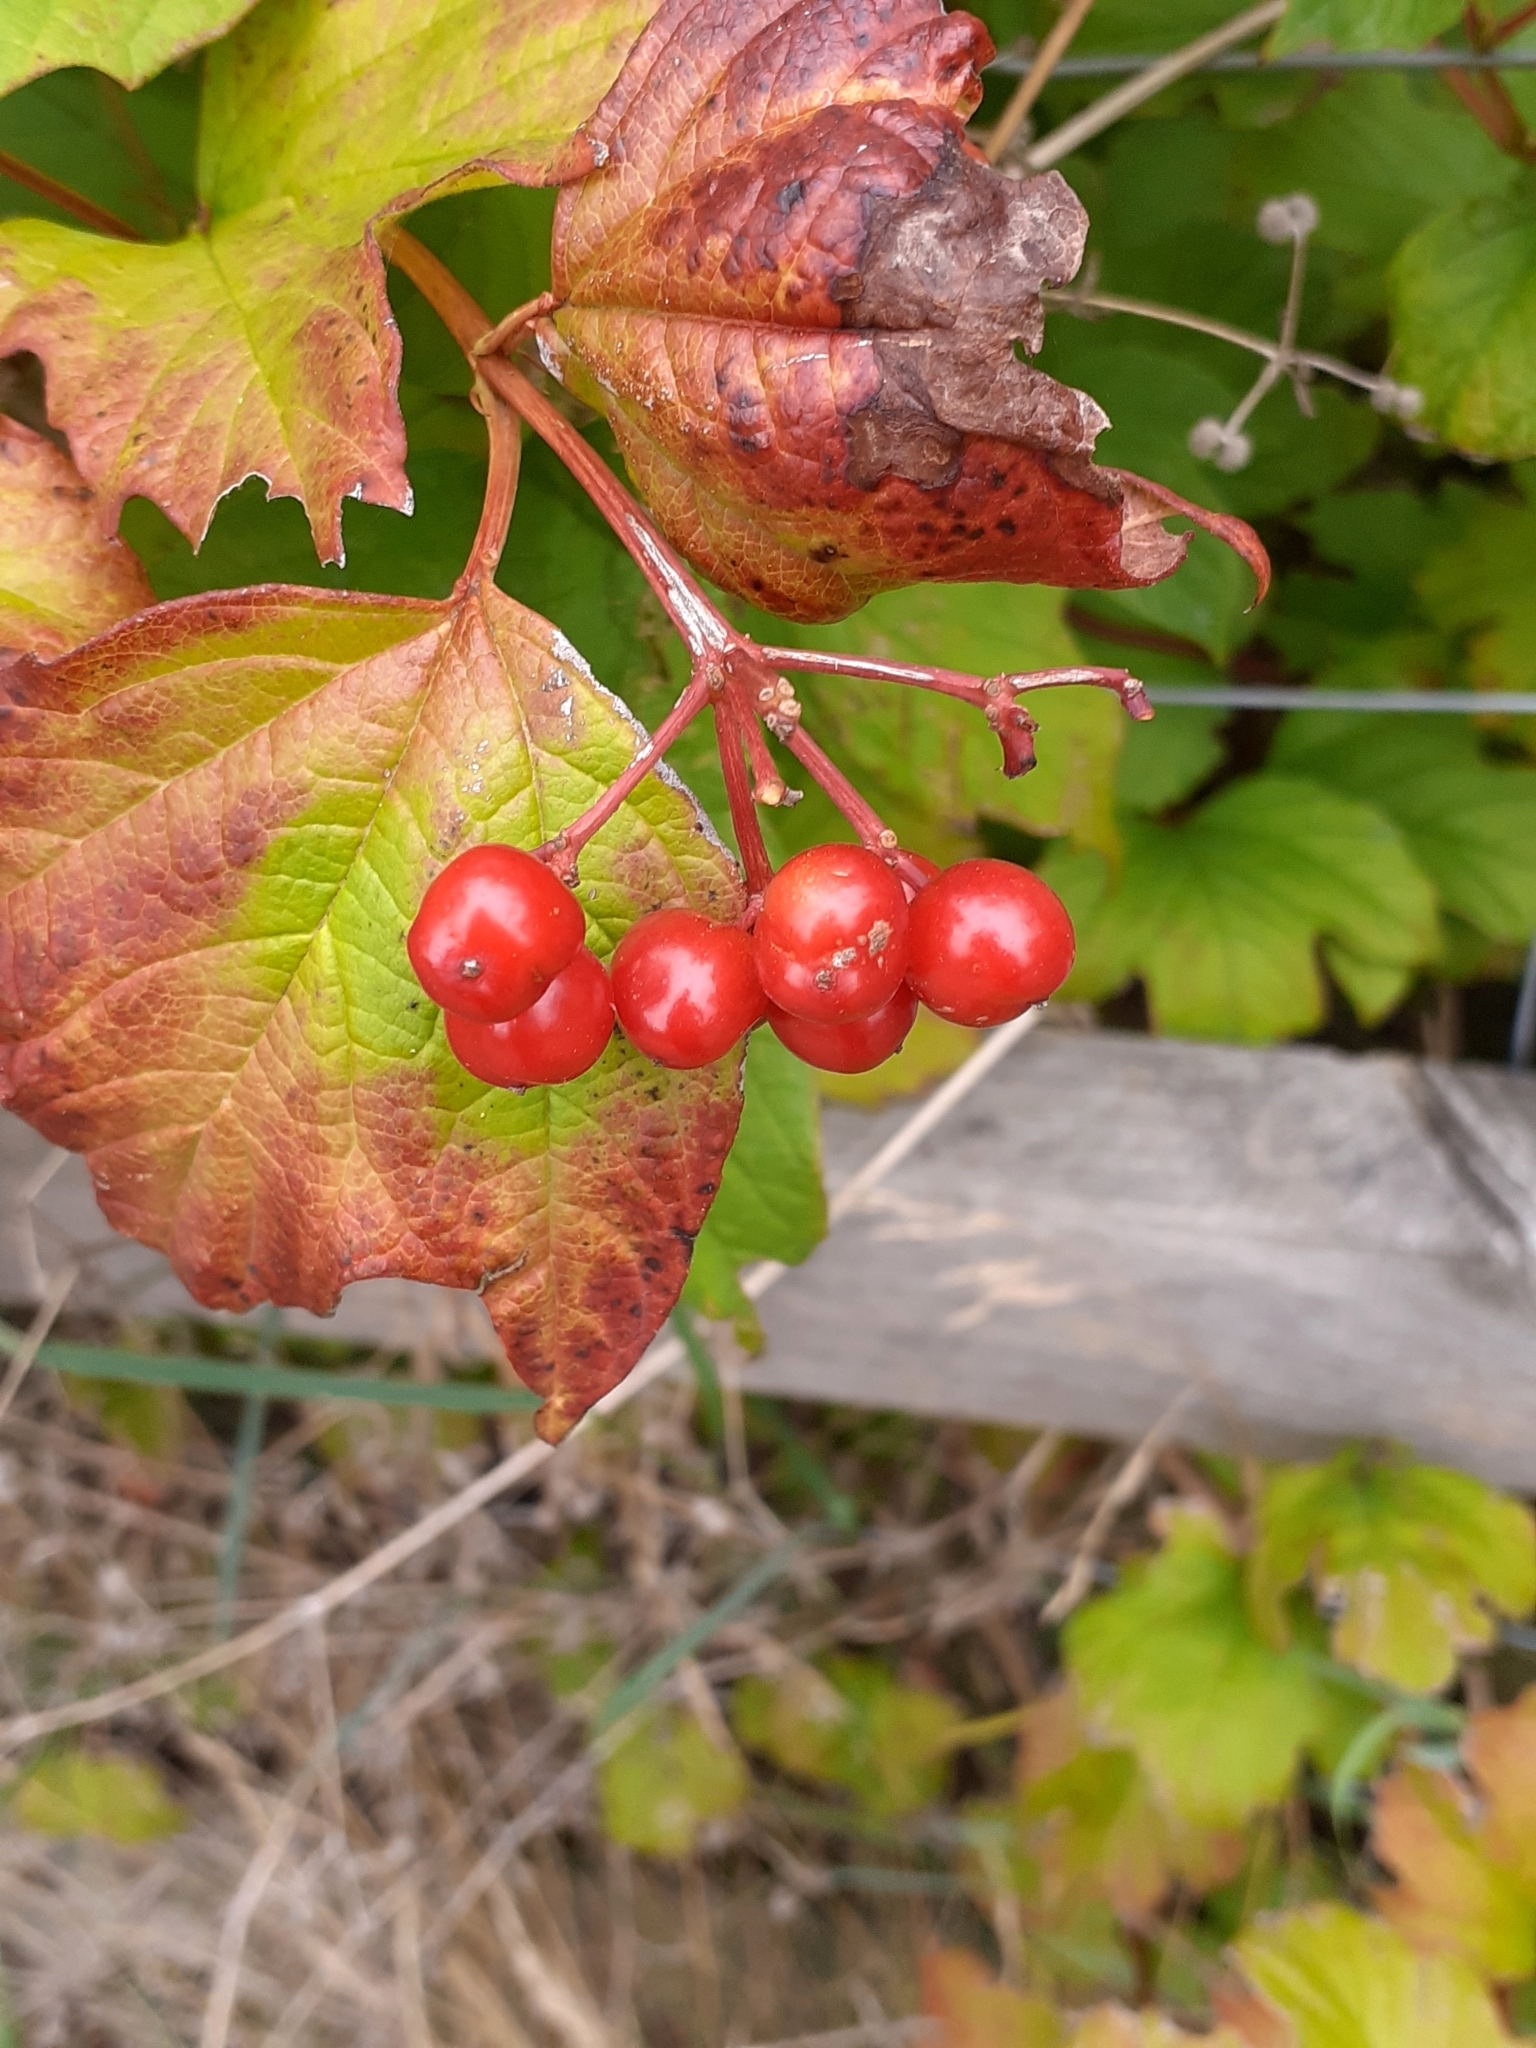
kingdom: Plantae
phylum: Tracheophyta
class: Magnoliopsida
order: Dipsacales
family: Viburnaceae
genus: Viburnum
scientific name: Viburnum opulus
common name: Guelder-rose
